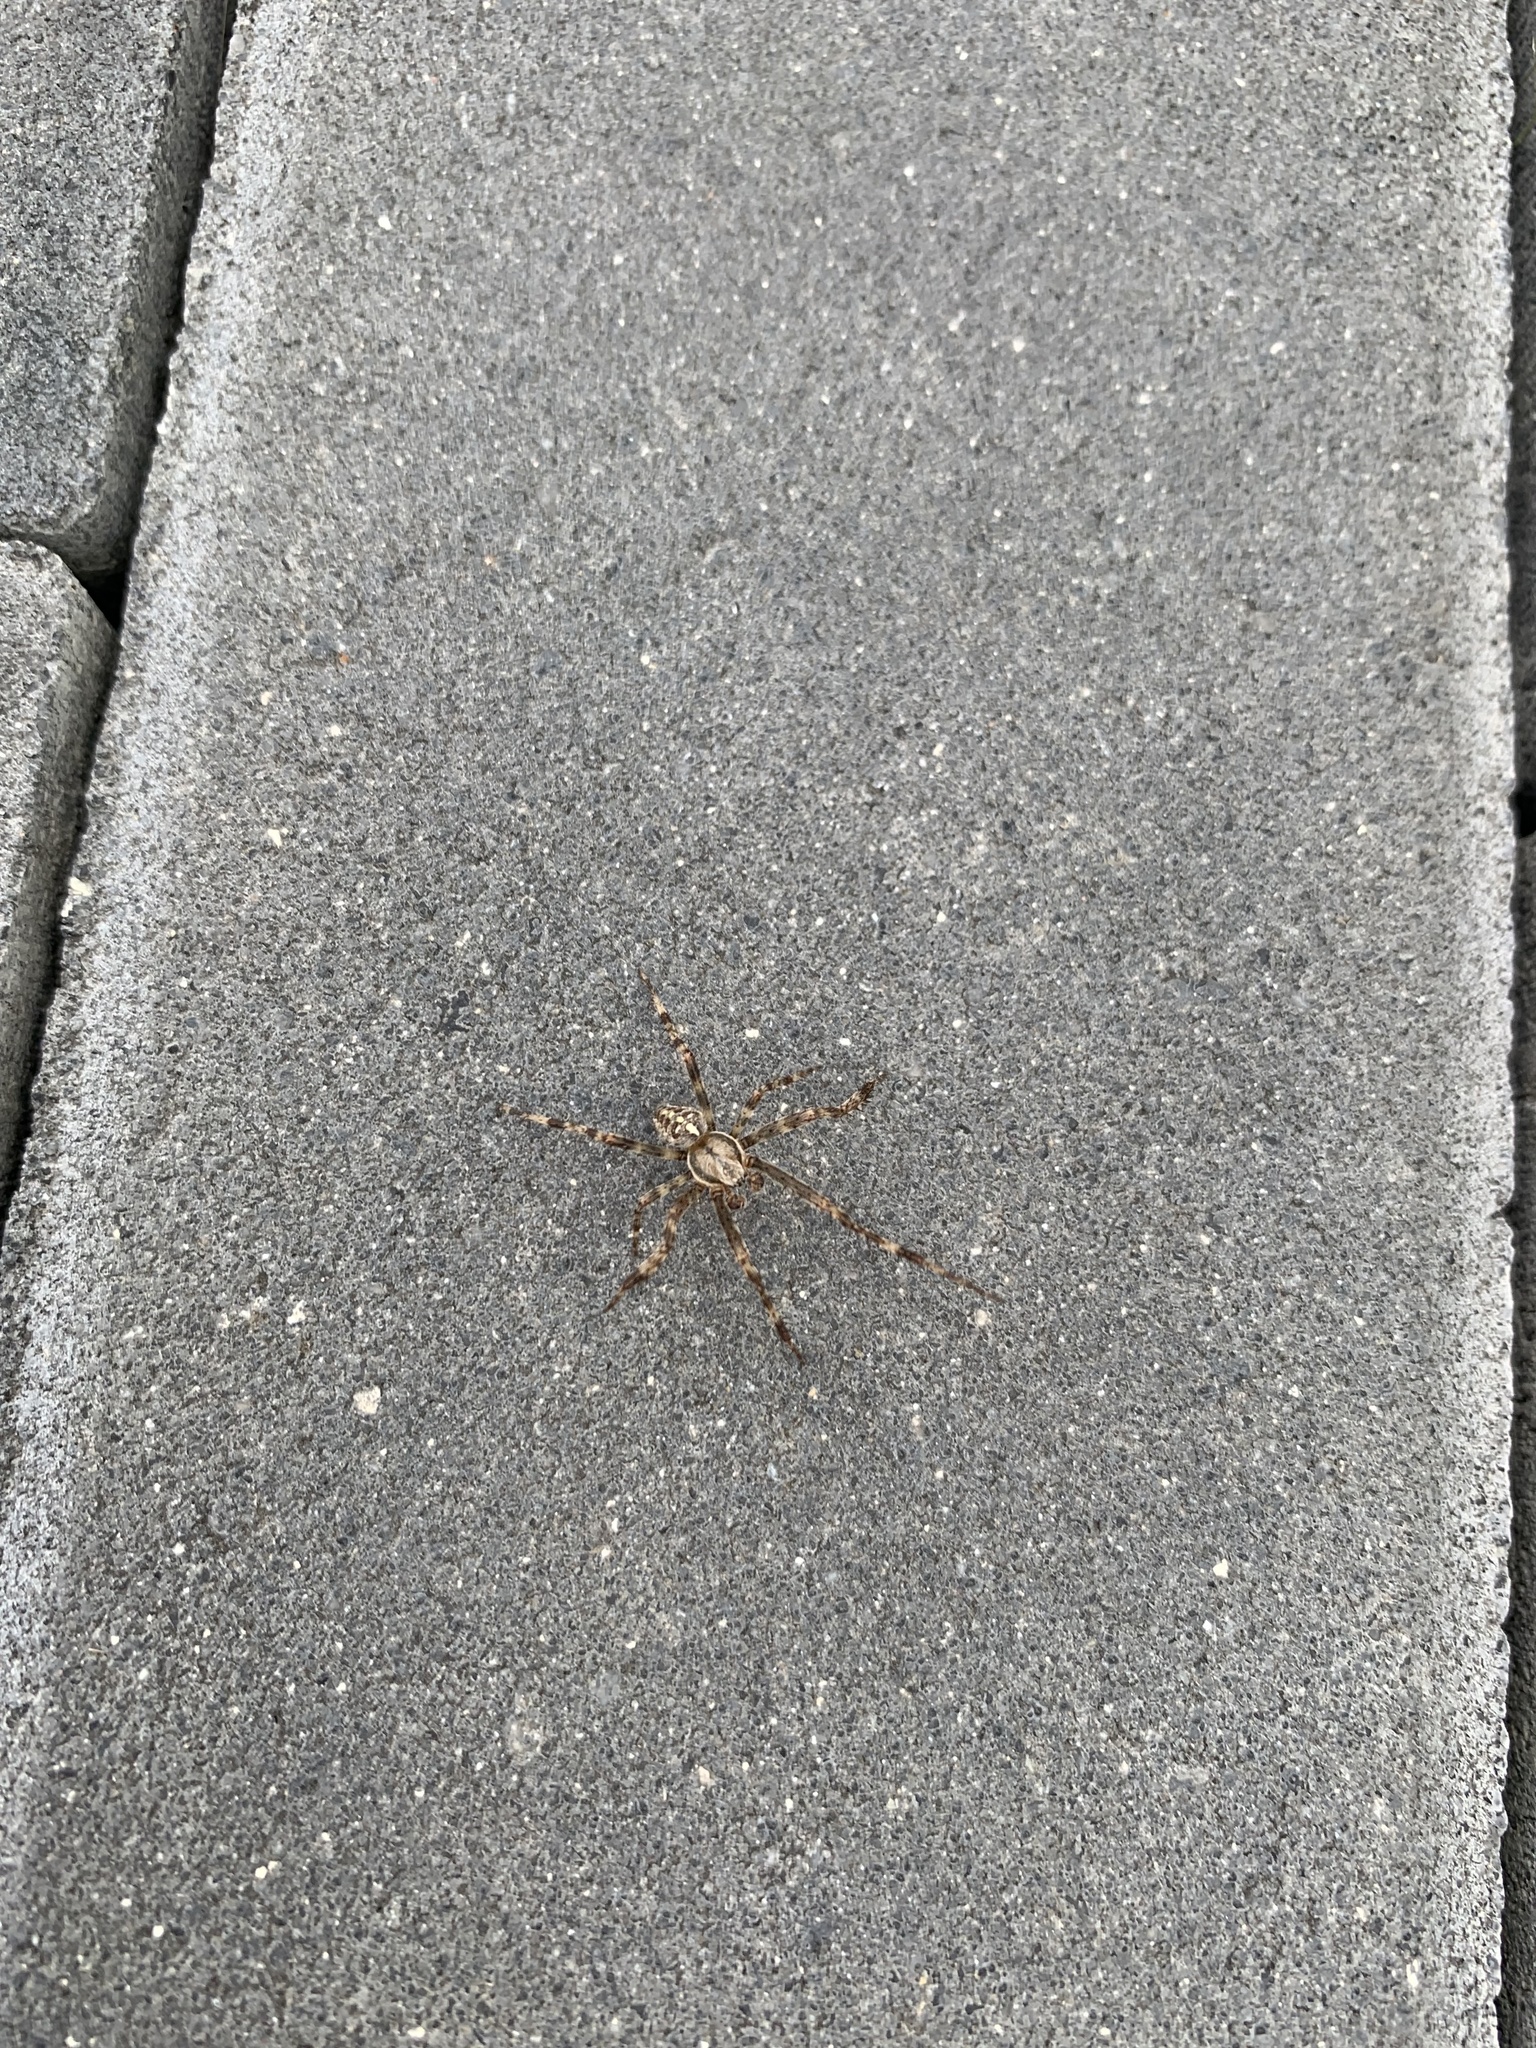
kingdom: Animalia
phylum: Arthropoda
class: Arachnida
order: Araneae
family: Araneidae
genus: Araneus
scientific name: Araneus diadematus
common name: Cross orbweaver
